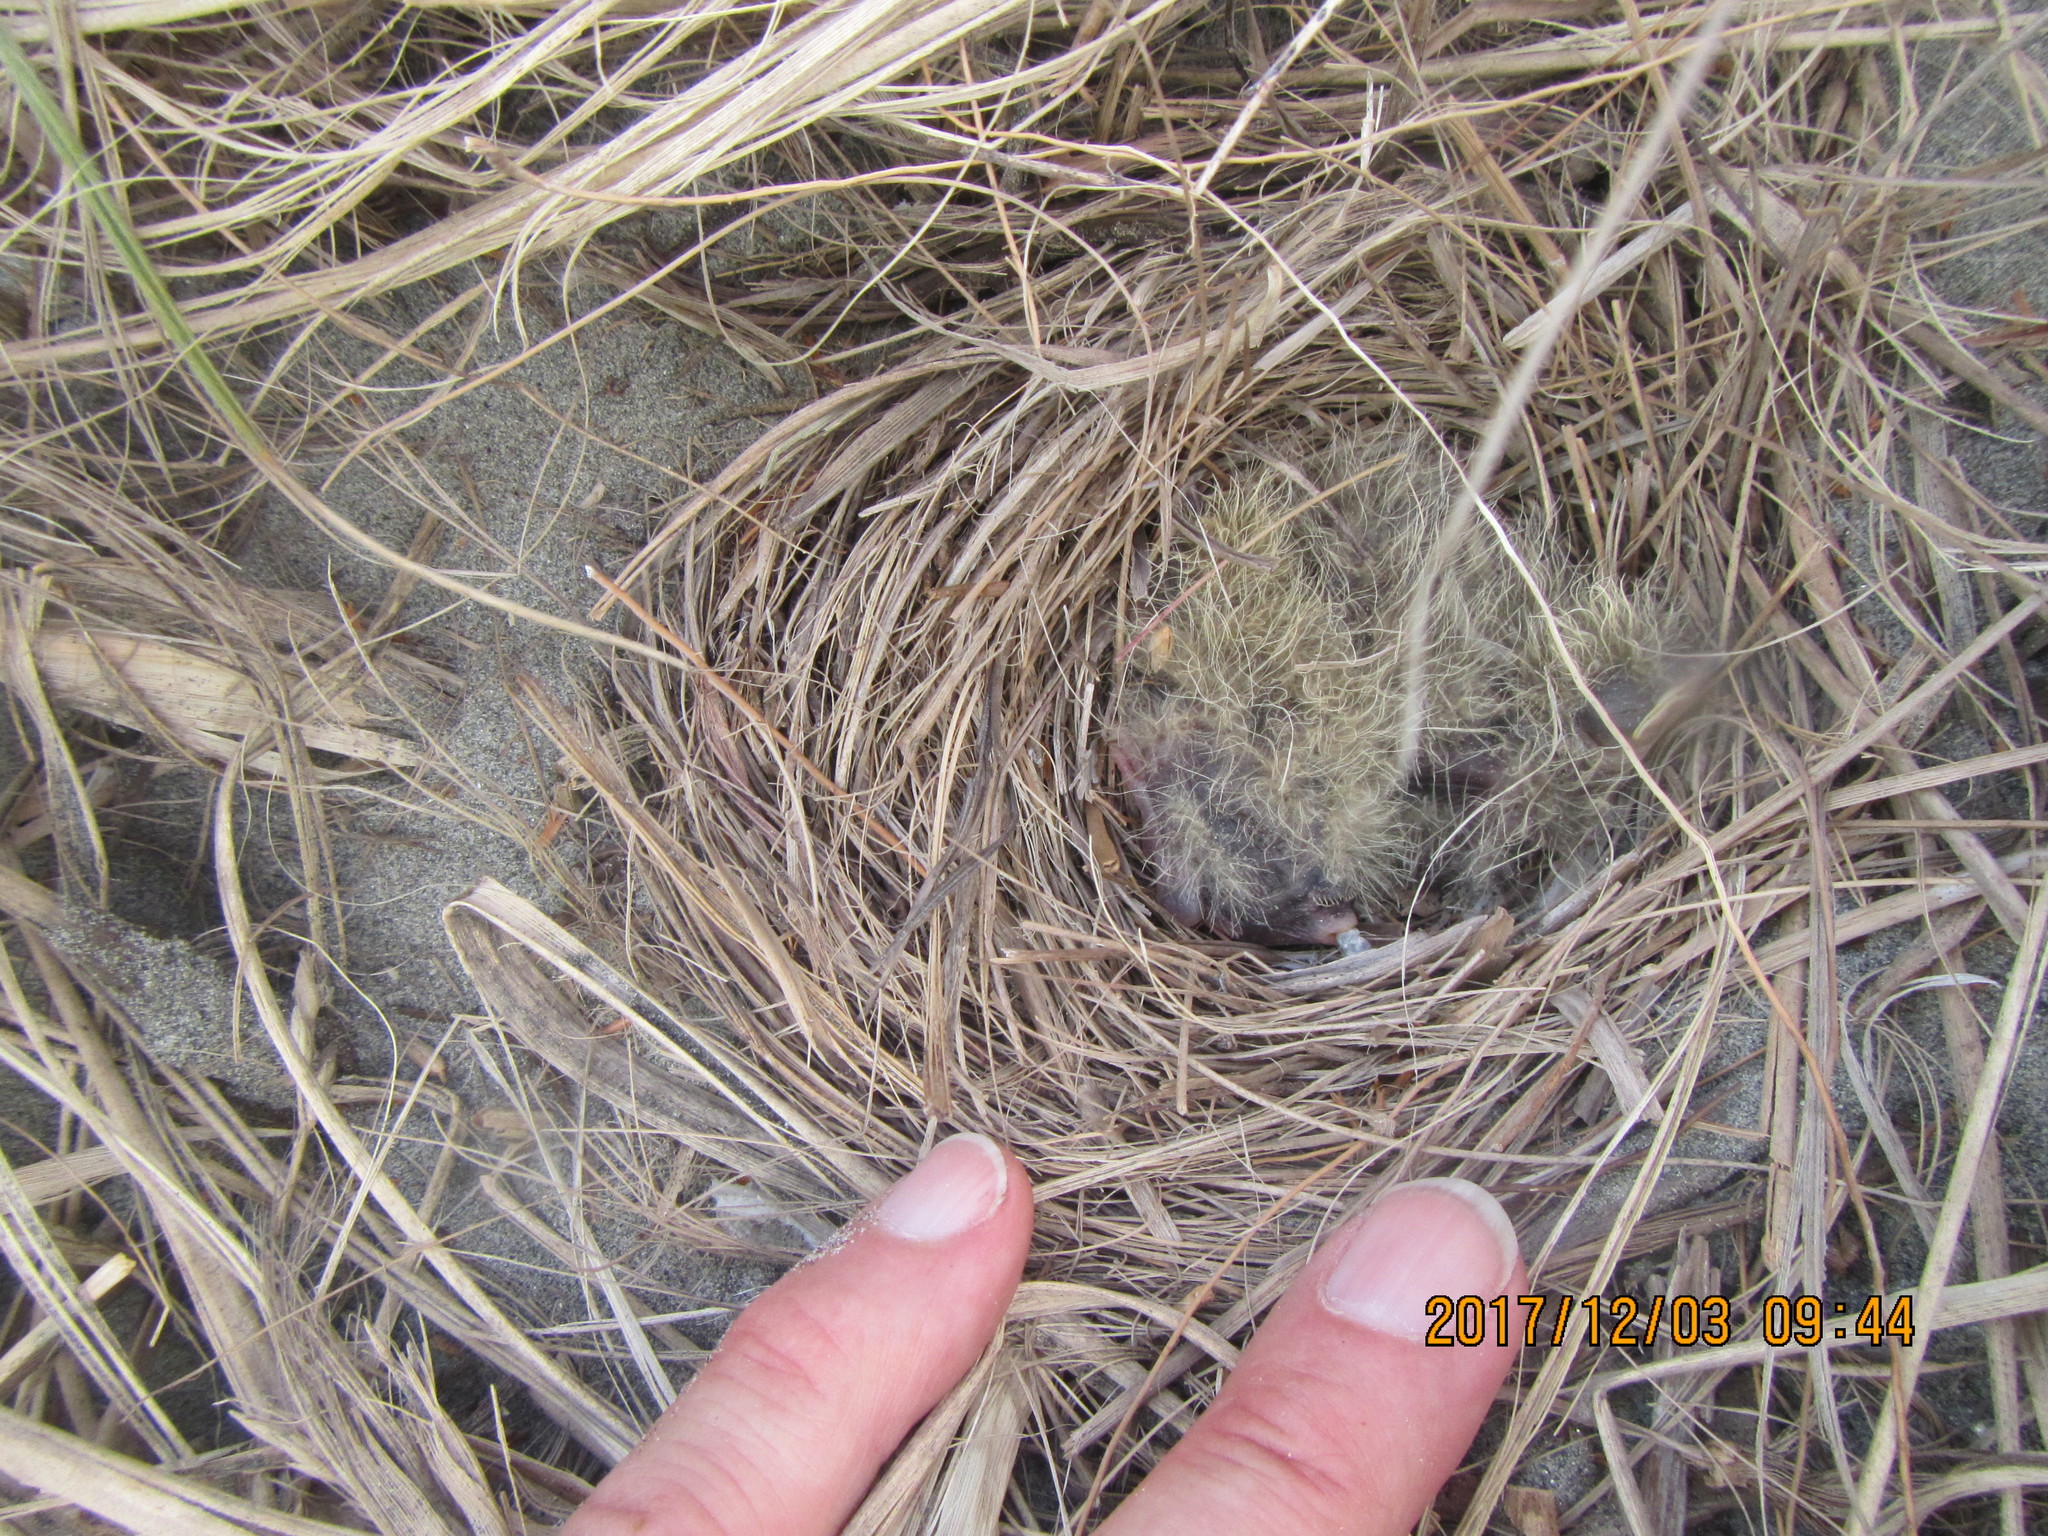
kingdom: Animalia
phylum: Chordata
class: Aves
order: Passeriformes
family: Alaudidae
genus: Alauda
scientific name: Alauda arvensis
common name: Eurasian skylark
